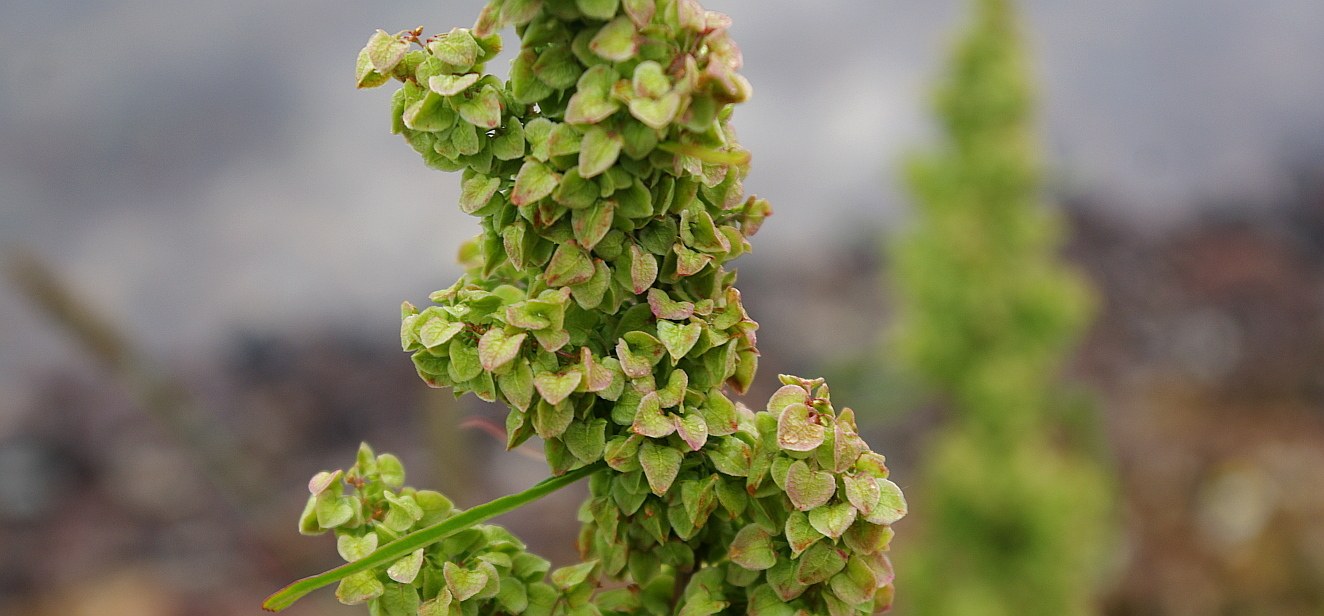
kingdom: Plantae
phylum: Tracheophyta
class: Magnoliopsida
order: Caryophyllales
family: Polygonaceae
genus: Rumex
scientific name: Rumex pseudonatronatus
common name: Field dock
